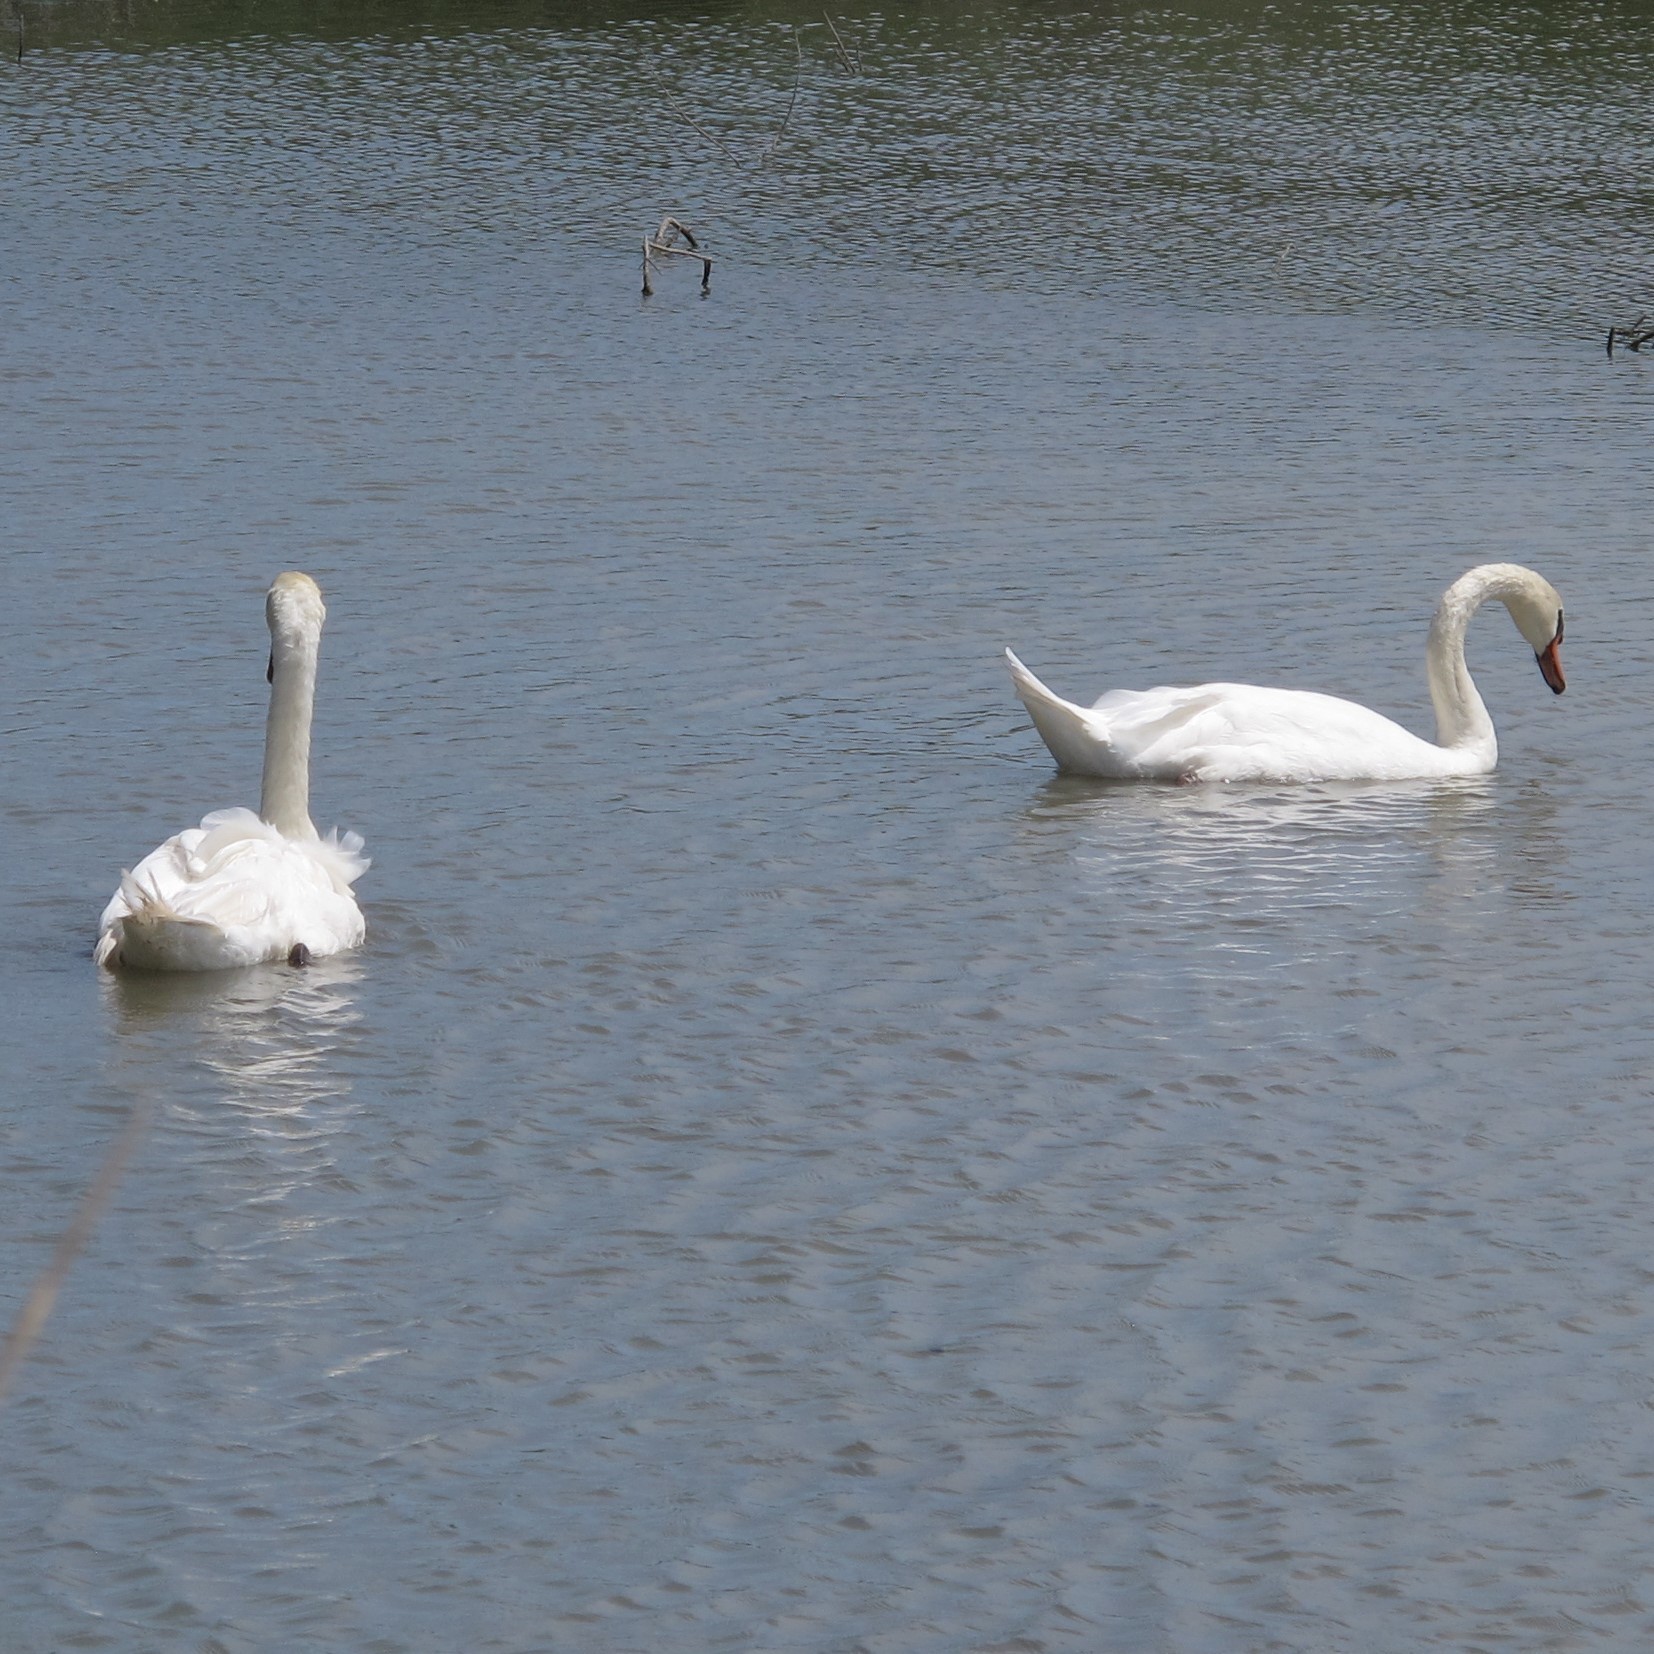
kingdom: Animalia
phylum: Chordata
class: Aves
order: Anseriformes
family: Anatidae
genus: Cygnus
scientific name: Cygnus olor
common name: Mute swan
